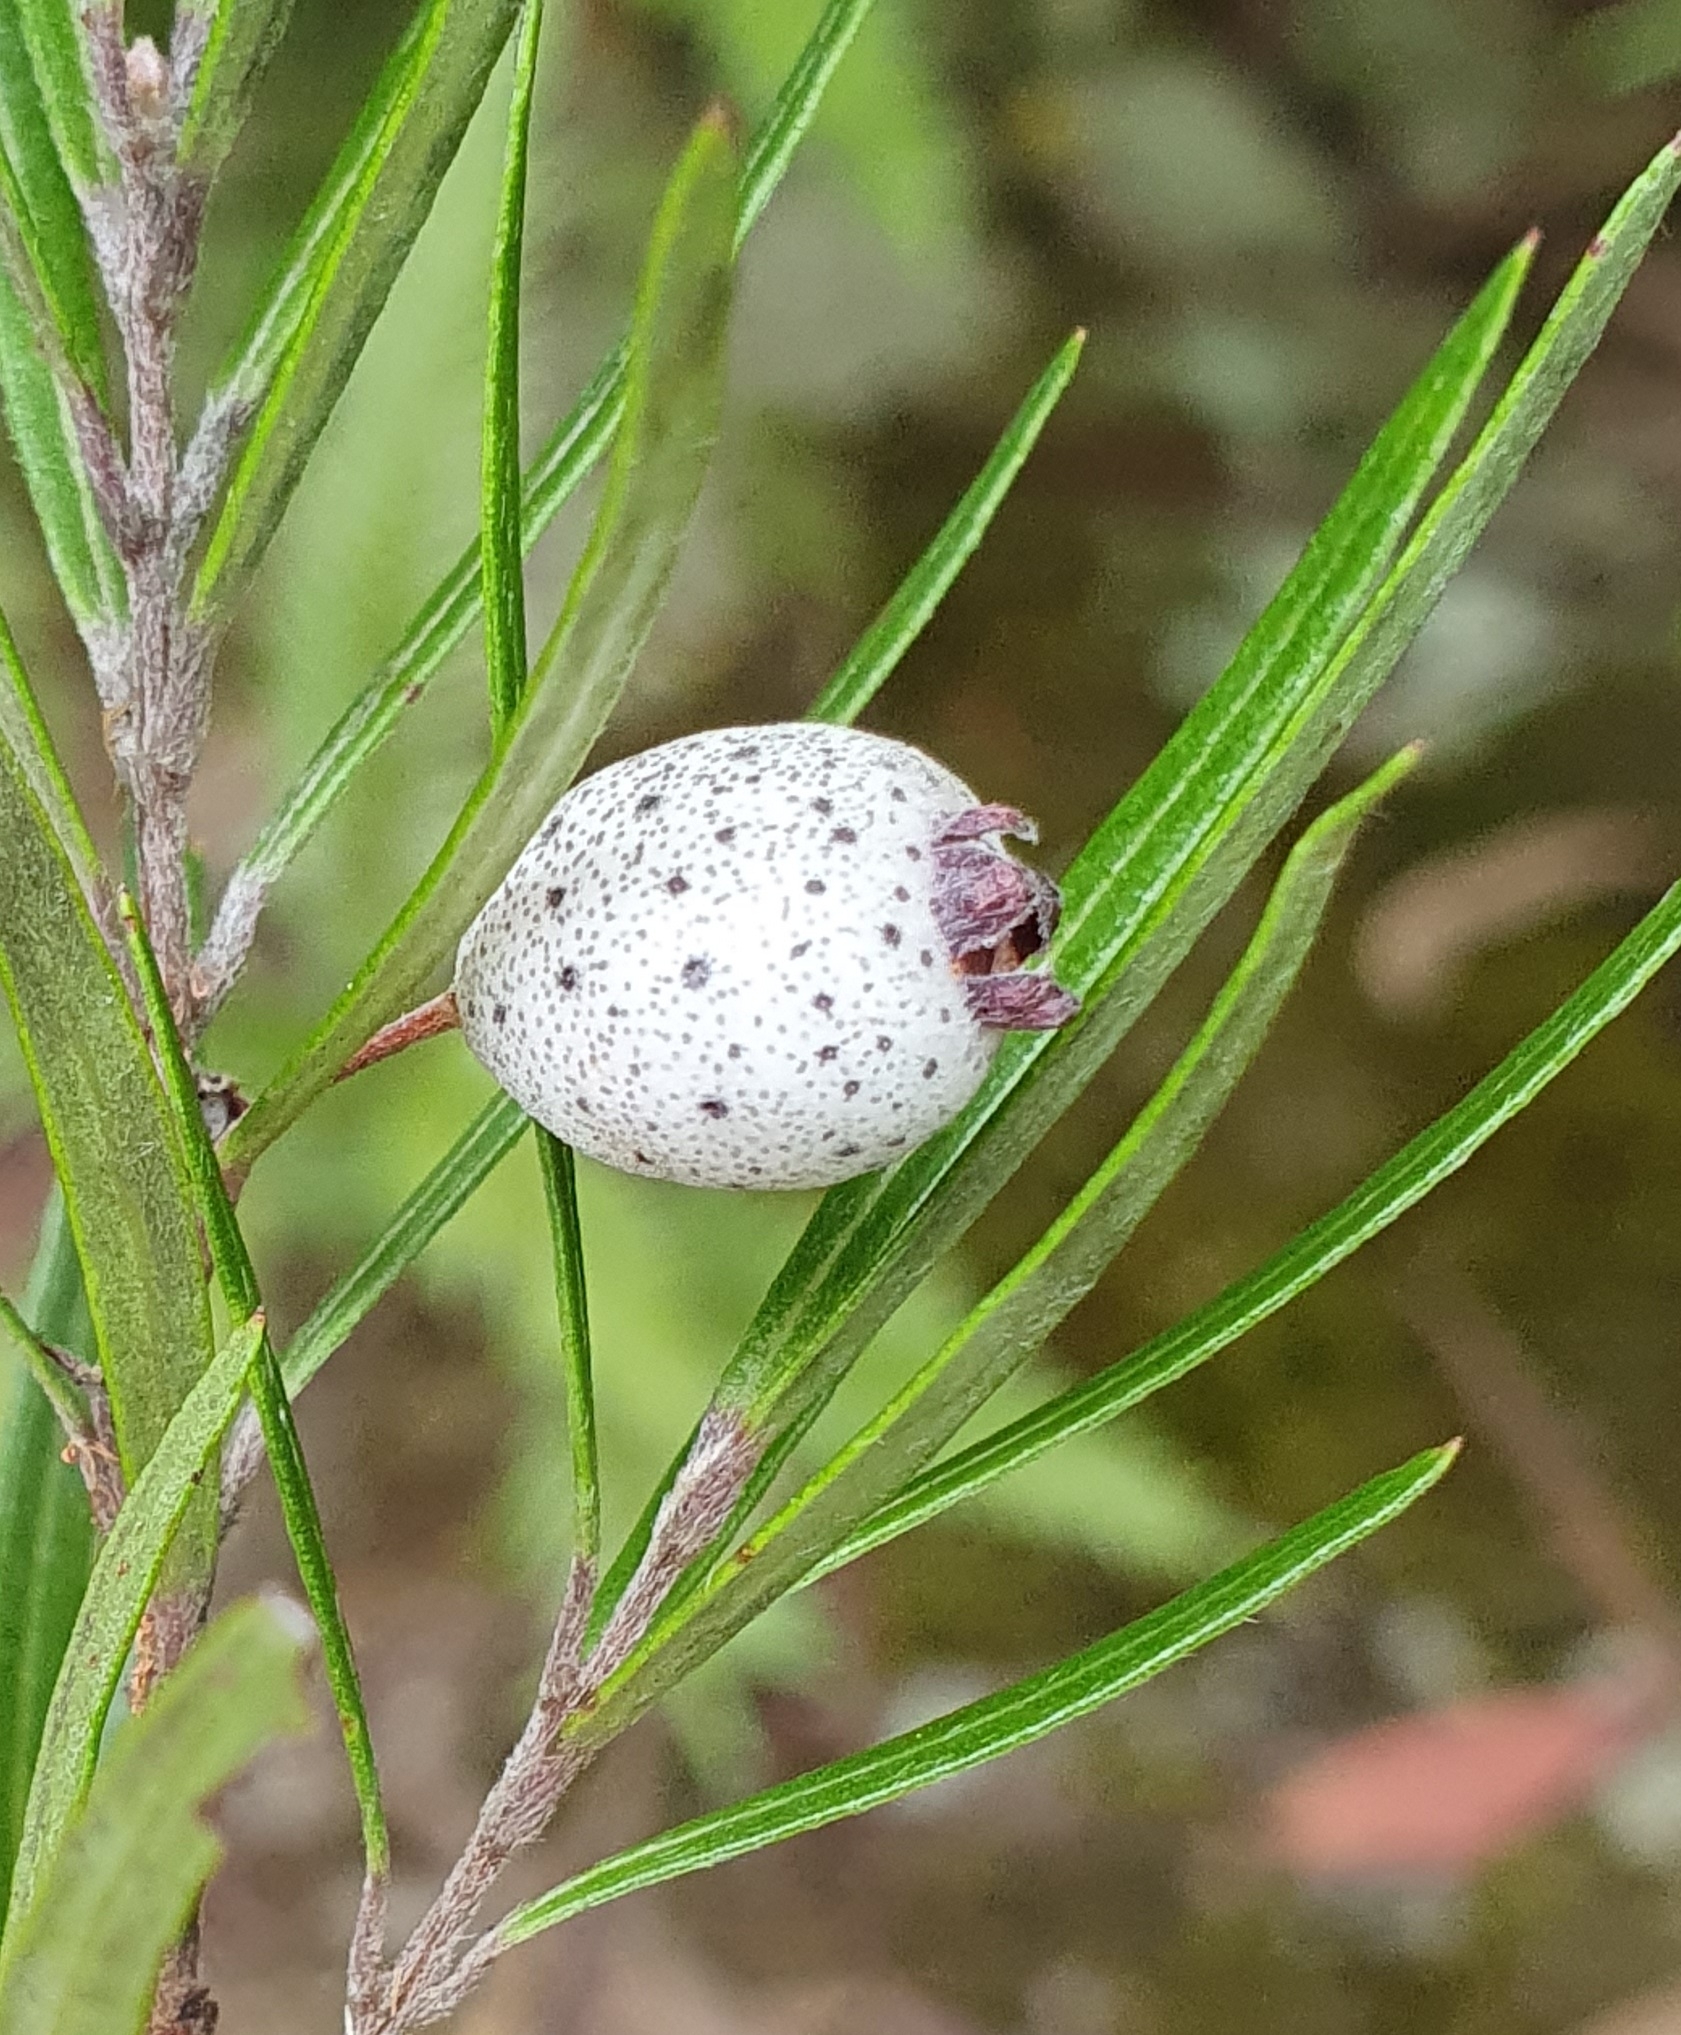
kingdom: Plantae
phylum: Tracheophyta
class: Magnoliopsida
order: Myrtales
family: Myrtaceae
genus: Austromyrtus
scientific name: Austromyrtus tenuifolia
